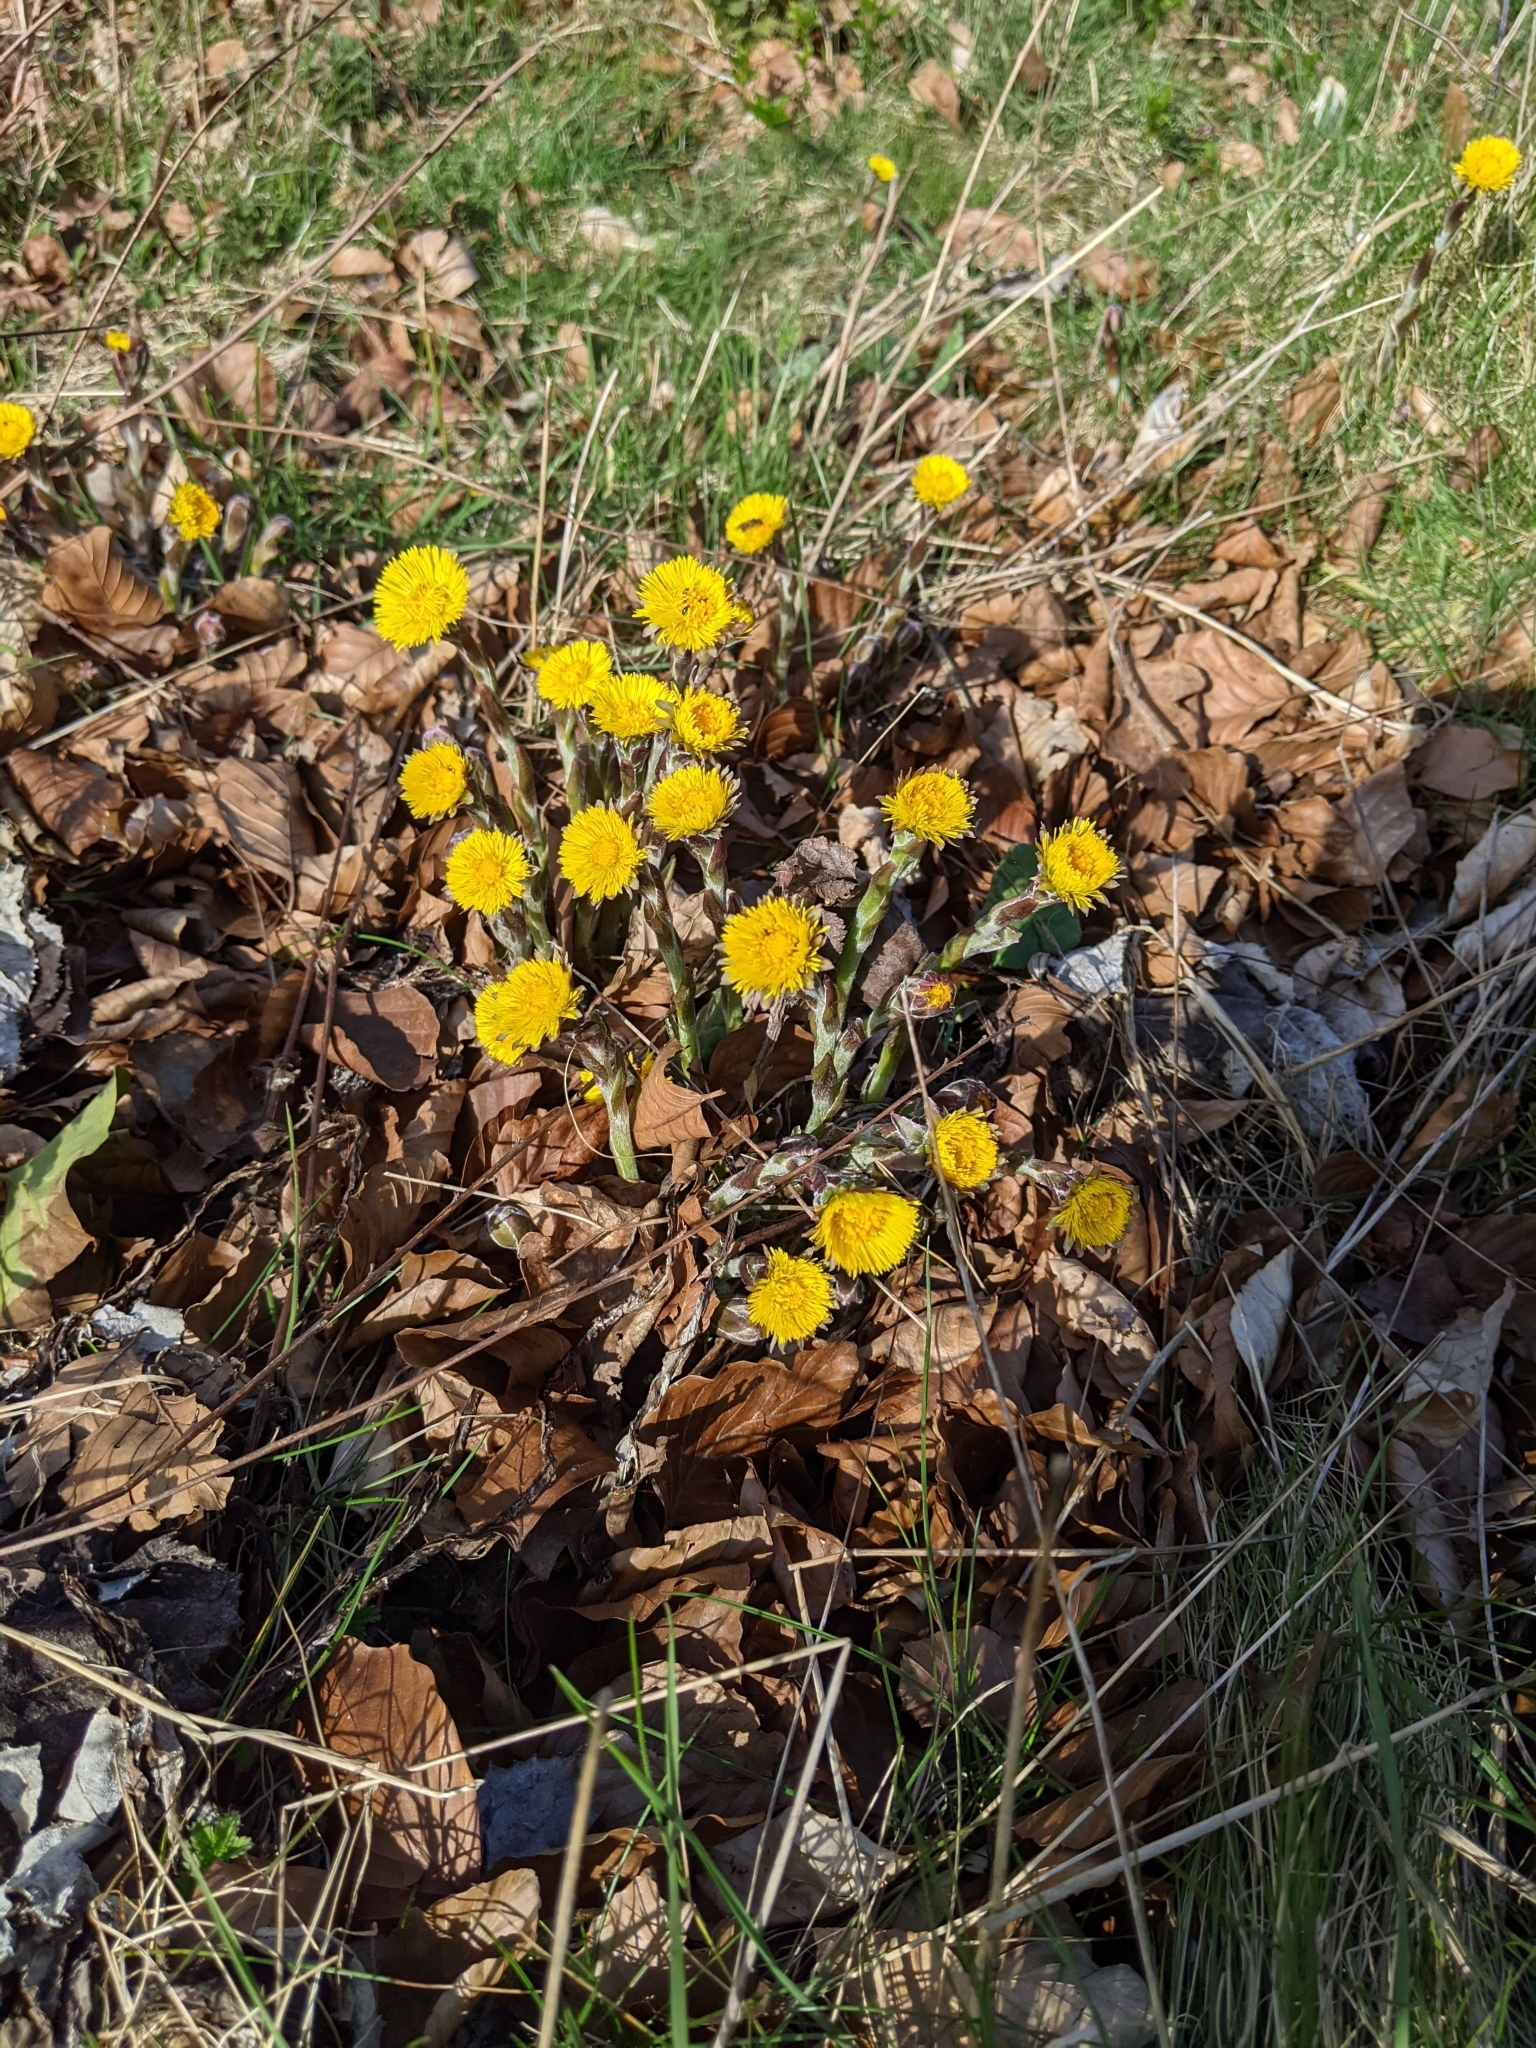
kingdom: Plantae
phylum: Tracheophyta
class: Magnoliopsida
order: Asterales
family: Asteraceae
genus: Tussilago
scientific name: Tussilago farfara
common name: Coltsfoot
